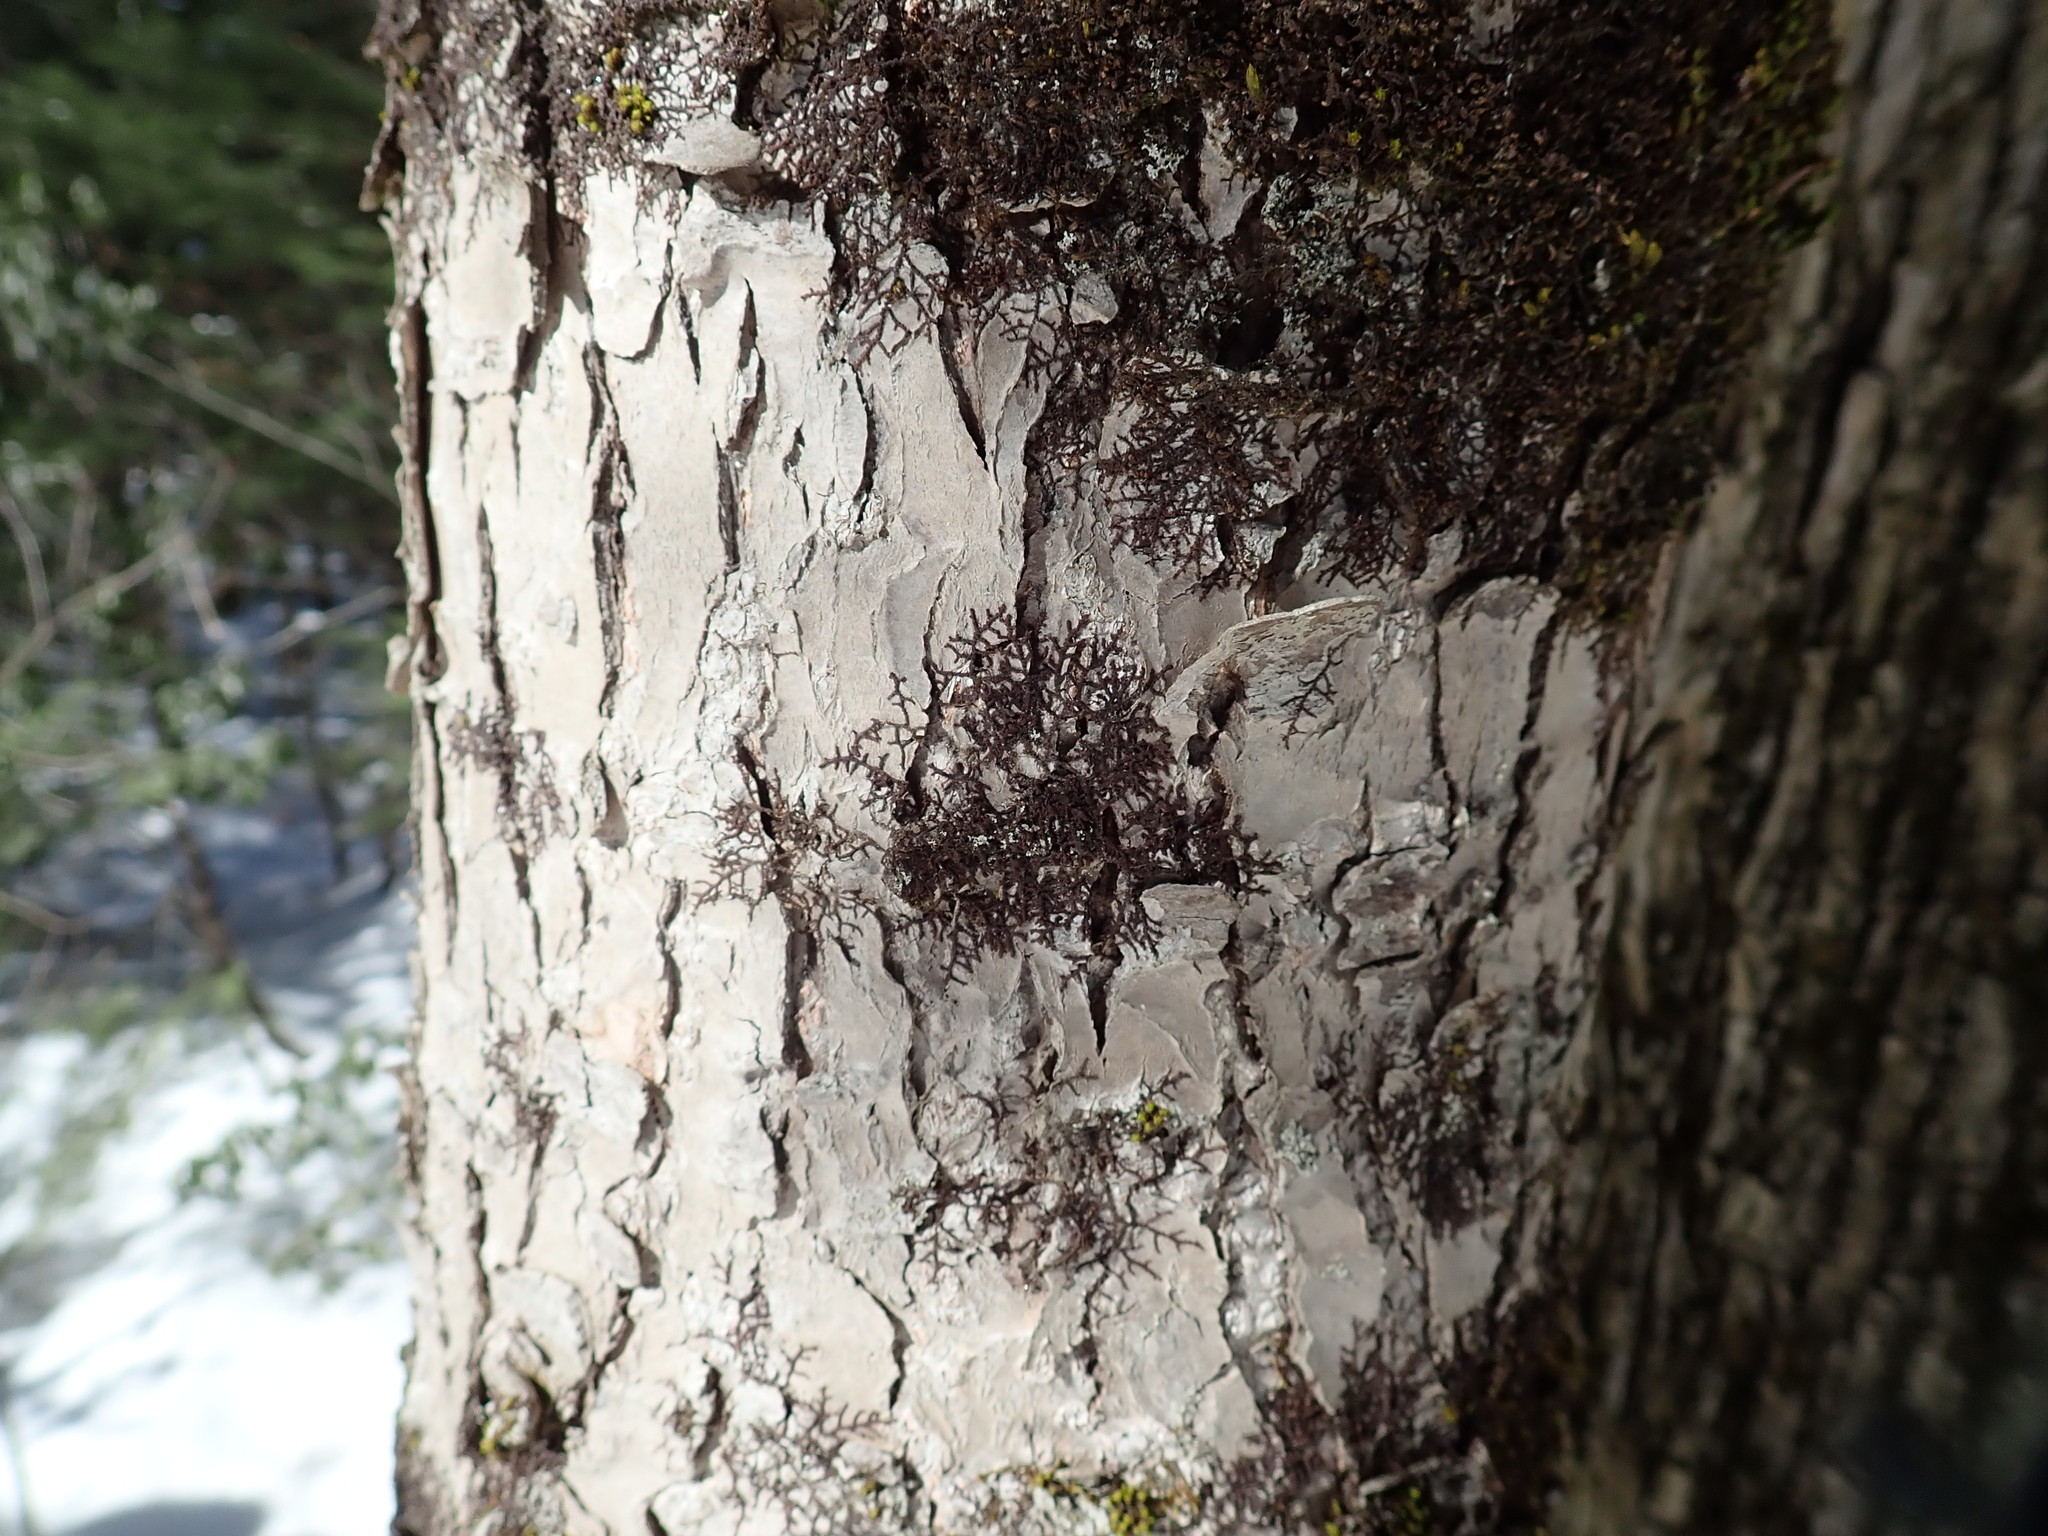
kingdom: Plantae
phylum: Marchantiophyta
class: Jungermanniopsida
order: Porellales
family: Frullaniaceae
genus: Frullania
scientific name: Frullania
